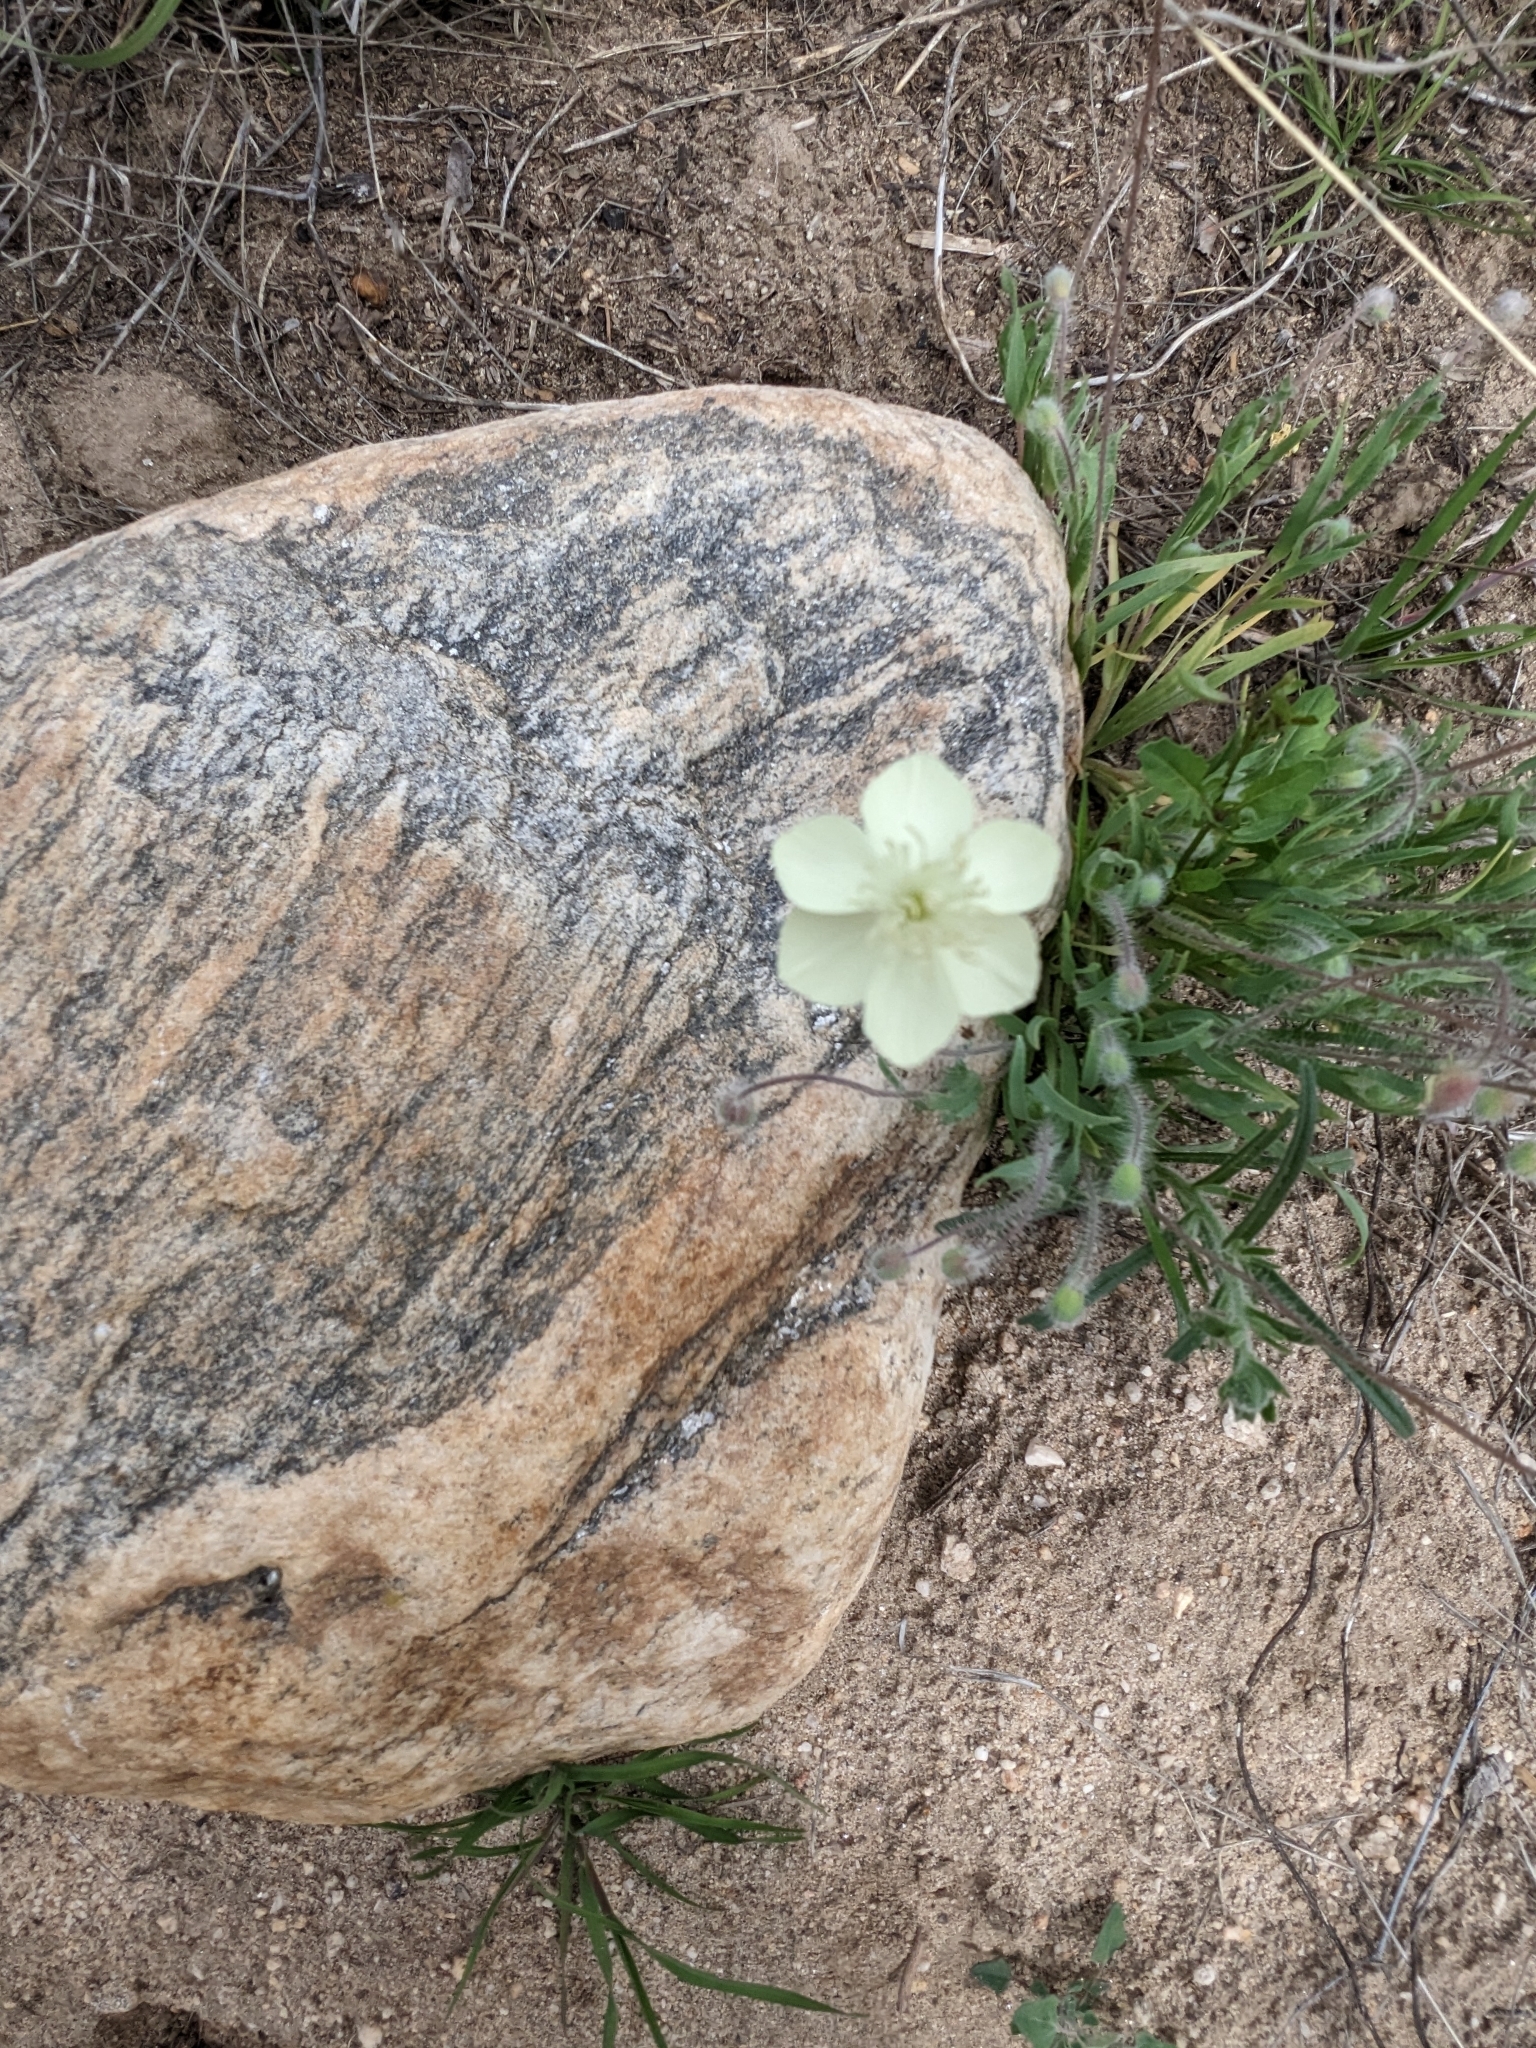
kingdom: Plantae
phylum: Tracheophyta
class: Magnoliopsida
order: Ranunculales
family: Papaveraceae
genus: Platystemon
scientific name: Platystemon californicus
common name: Cream-cups
